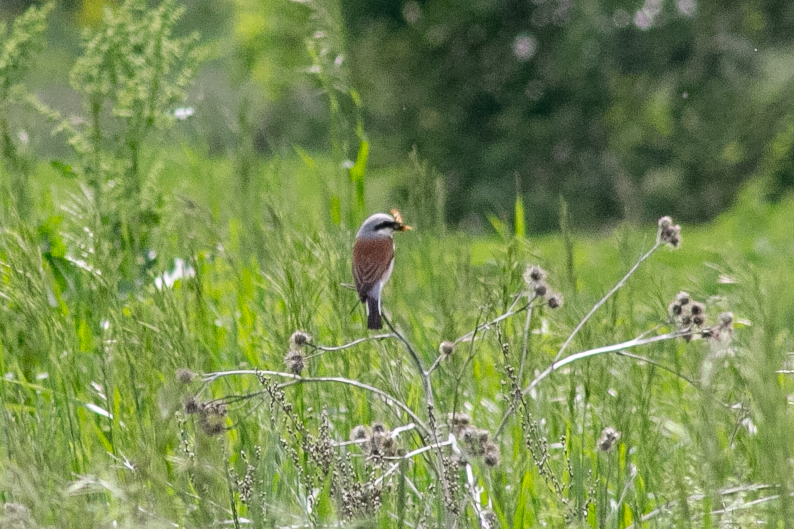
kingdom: Animalia
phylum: Chordata
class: Aves
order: Passeriformes
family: Laniidae
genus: Lanius
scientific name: Lanius collurio
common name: Red-backed shrike
